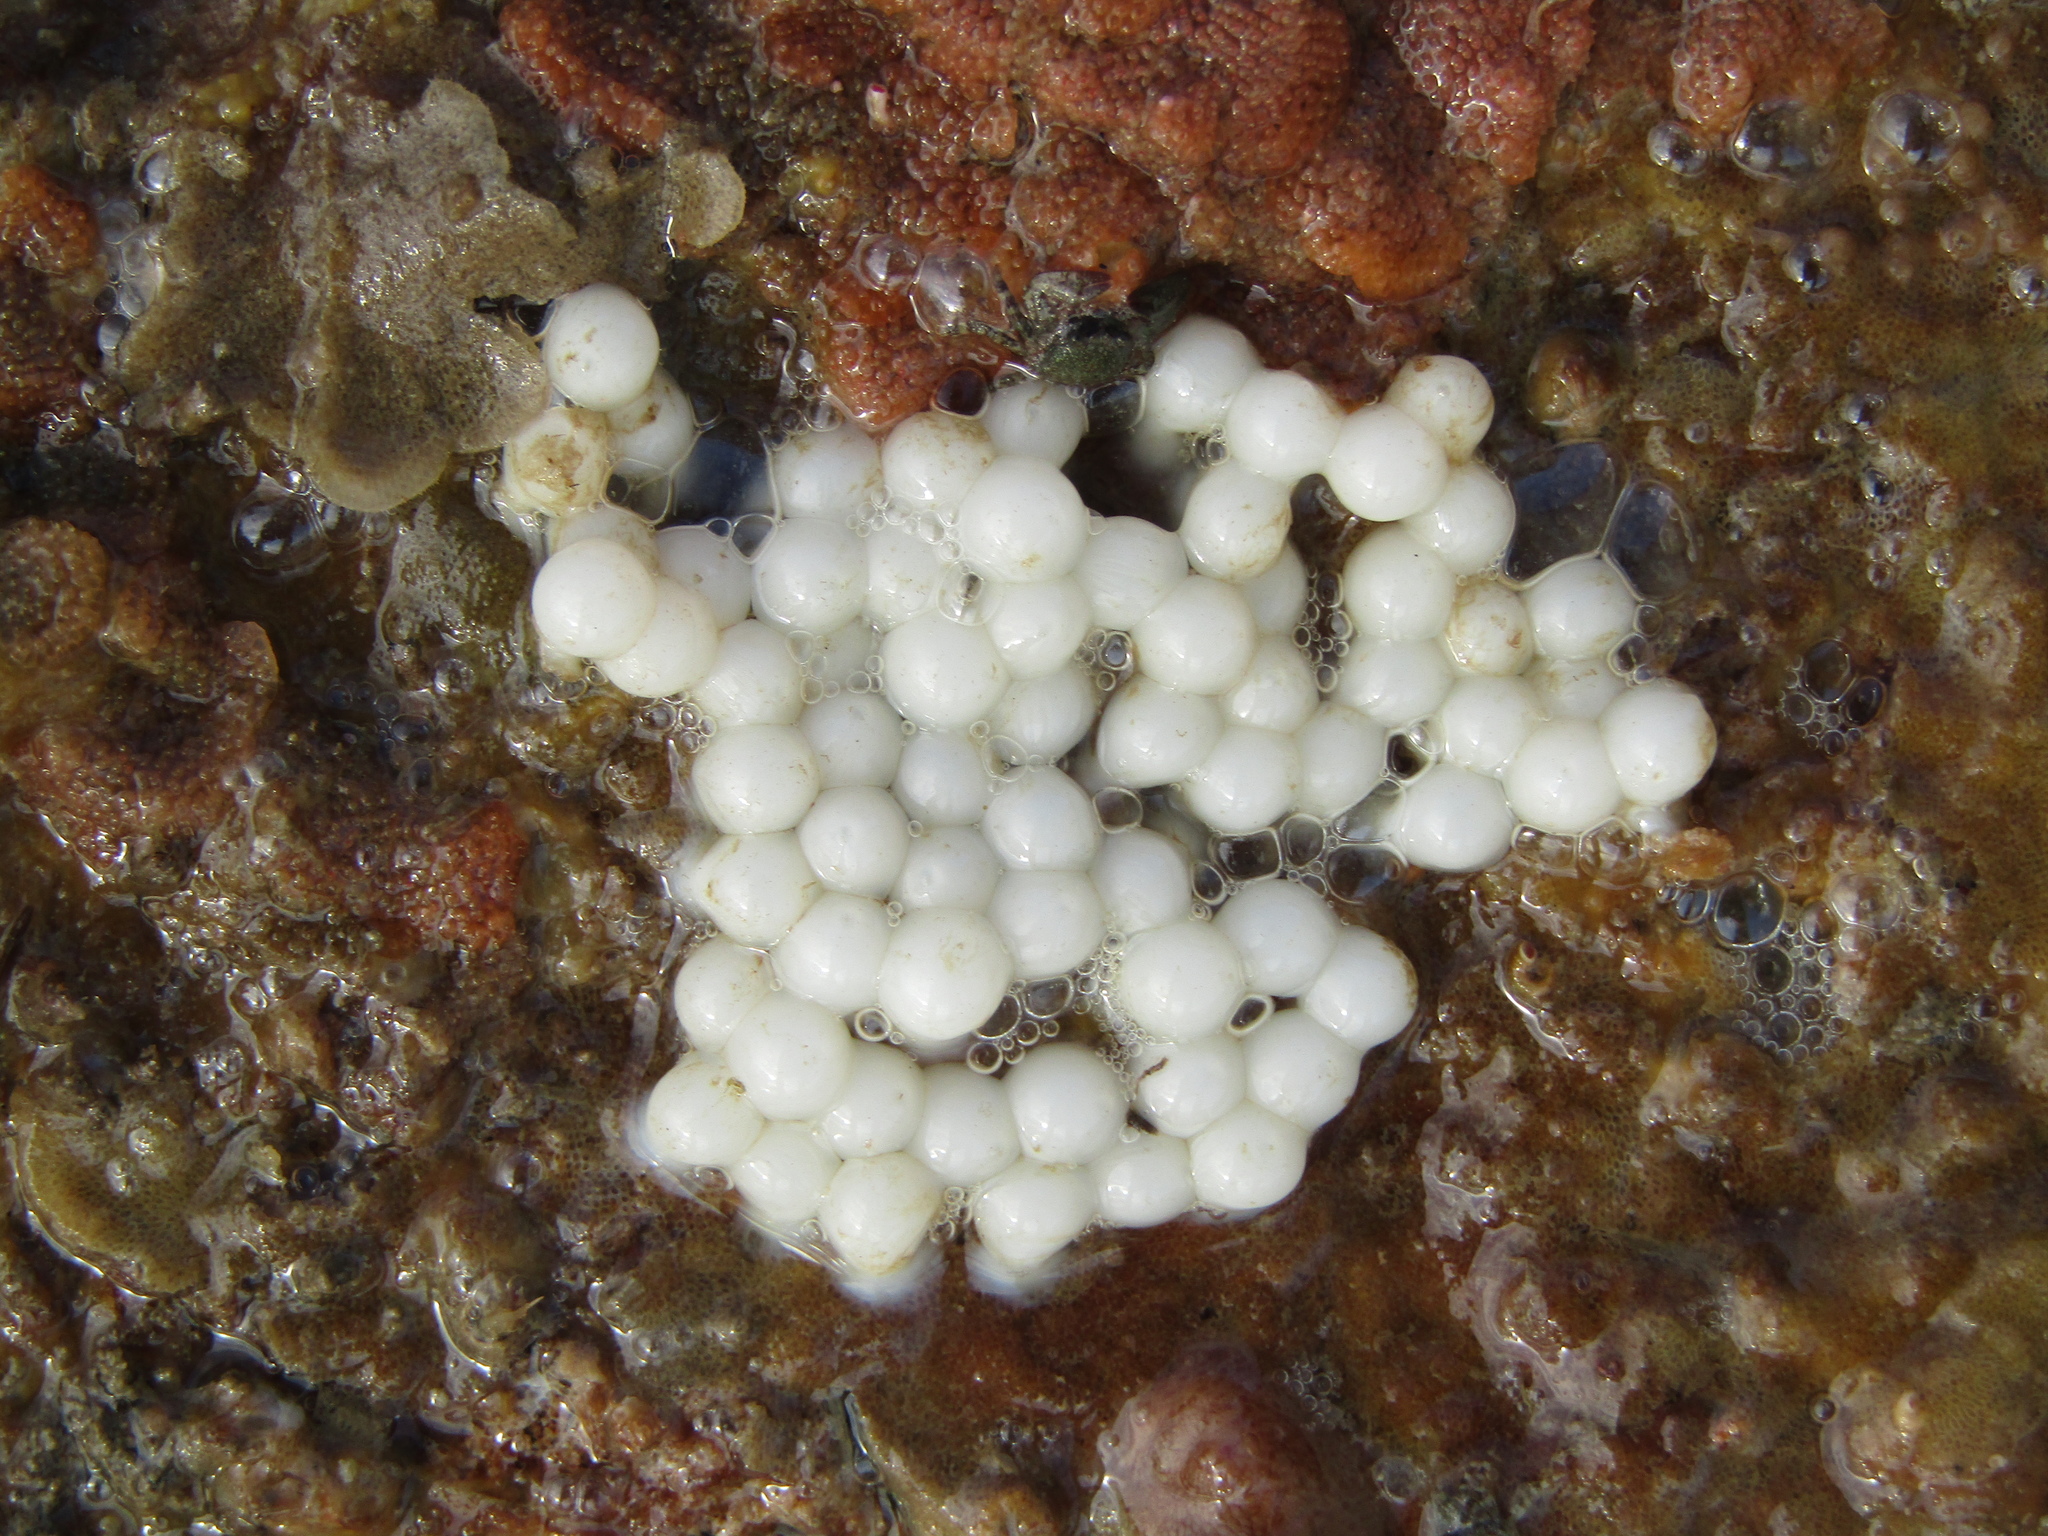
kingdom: Animalia
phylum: Mollusca
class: Cephalopoda
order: Sepiida
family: Sepiadariidae
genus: Sepioloidea
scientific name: Sepioloidea pacifica
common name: Pacific bobtail squid
